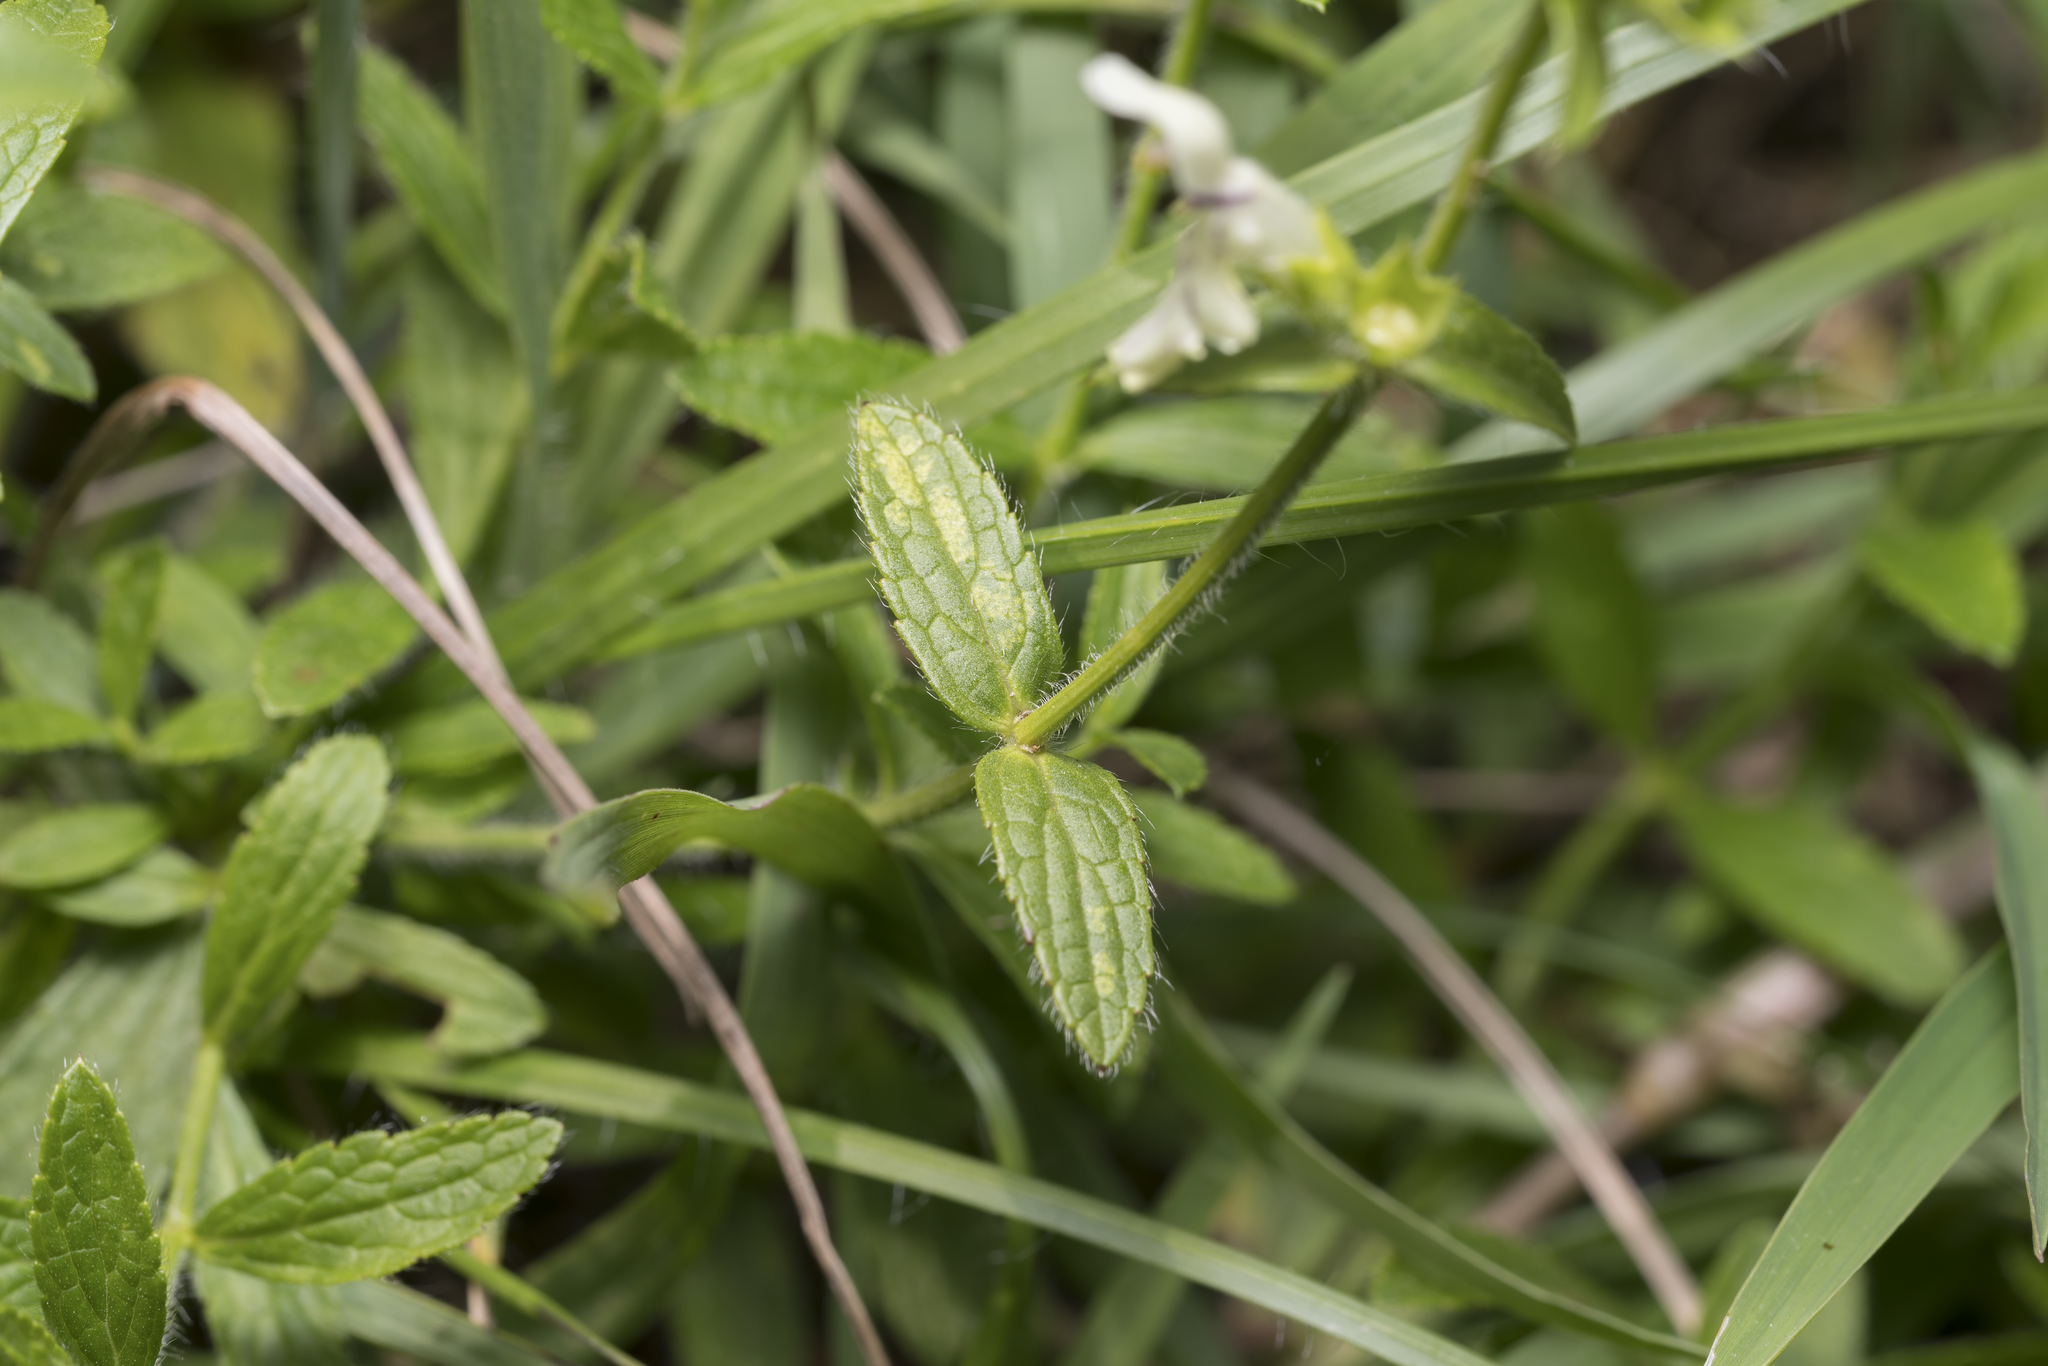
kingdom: Plantae
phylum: Tracheophyta
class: Magnoliopsida
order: Lamiales
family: Lamiaceae
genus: Stachys
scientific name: Stachys recta
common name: Perennial yellow-woundwort
